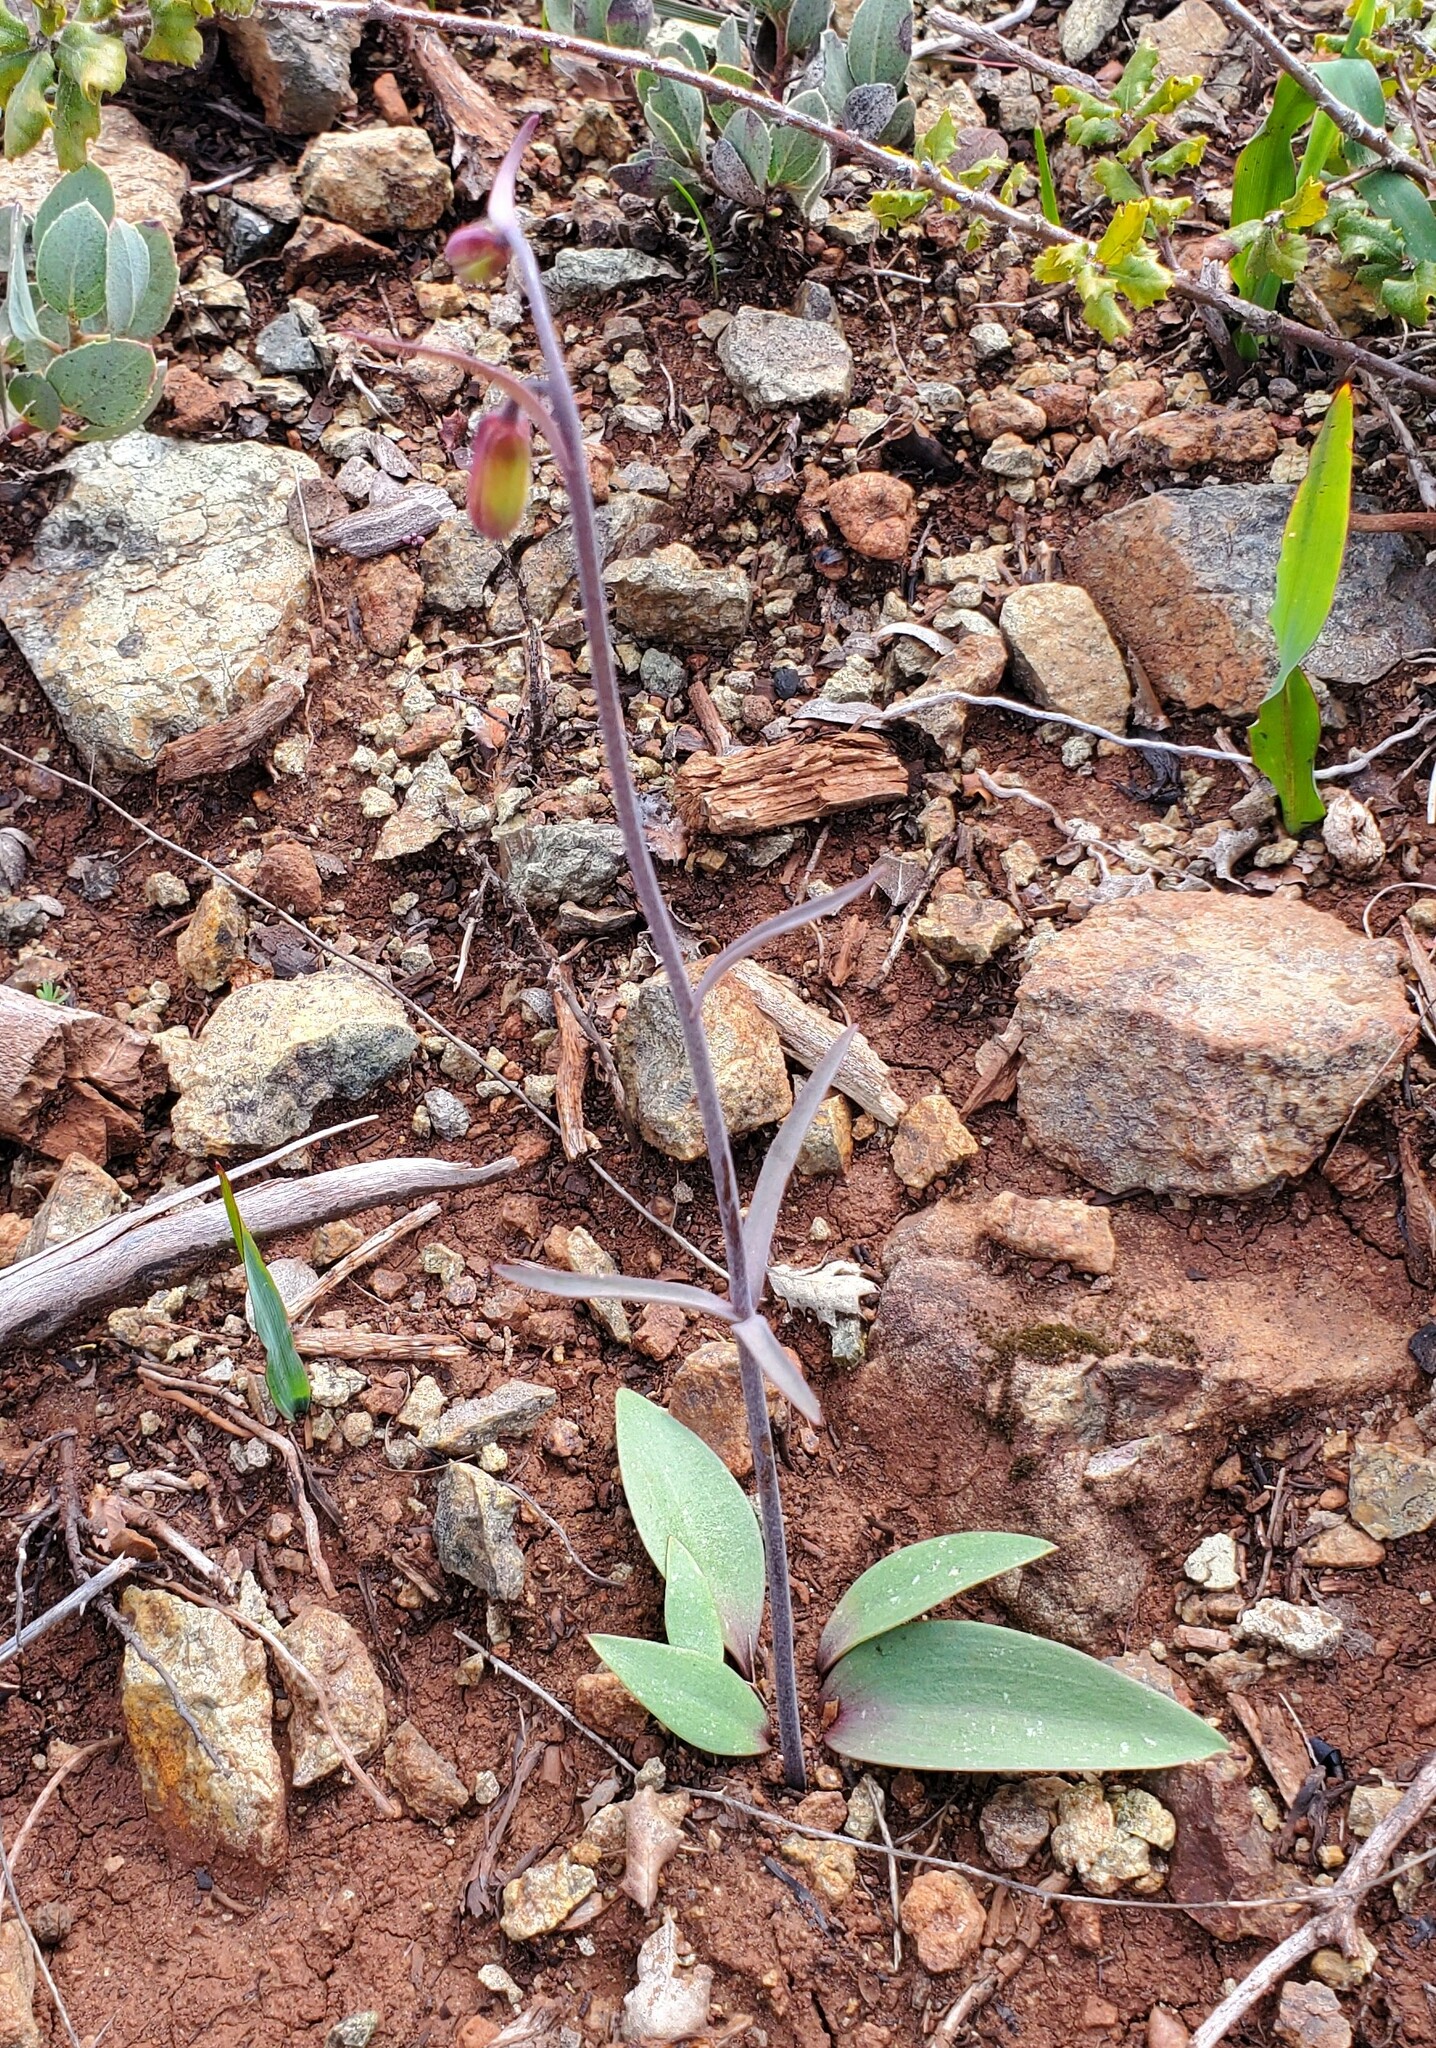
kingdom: Plantae
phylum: Tracheophyta
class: Liliopsida
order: Liliales
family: Liliaceae
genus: Fritillaria
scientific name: Fritillaria recurva
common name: Scarlet fritillary
